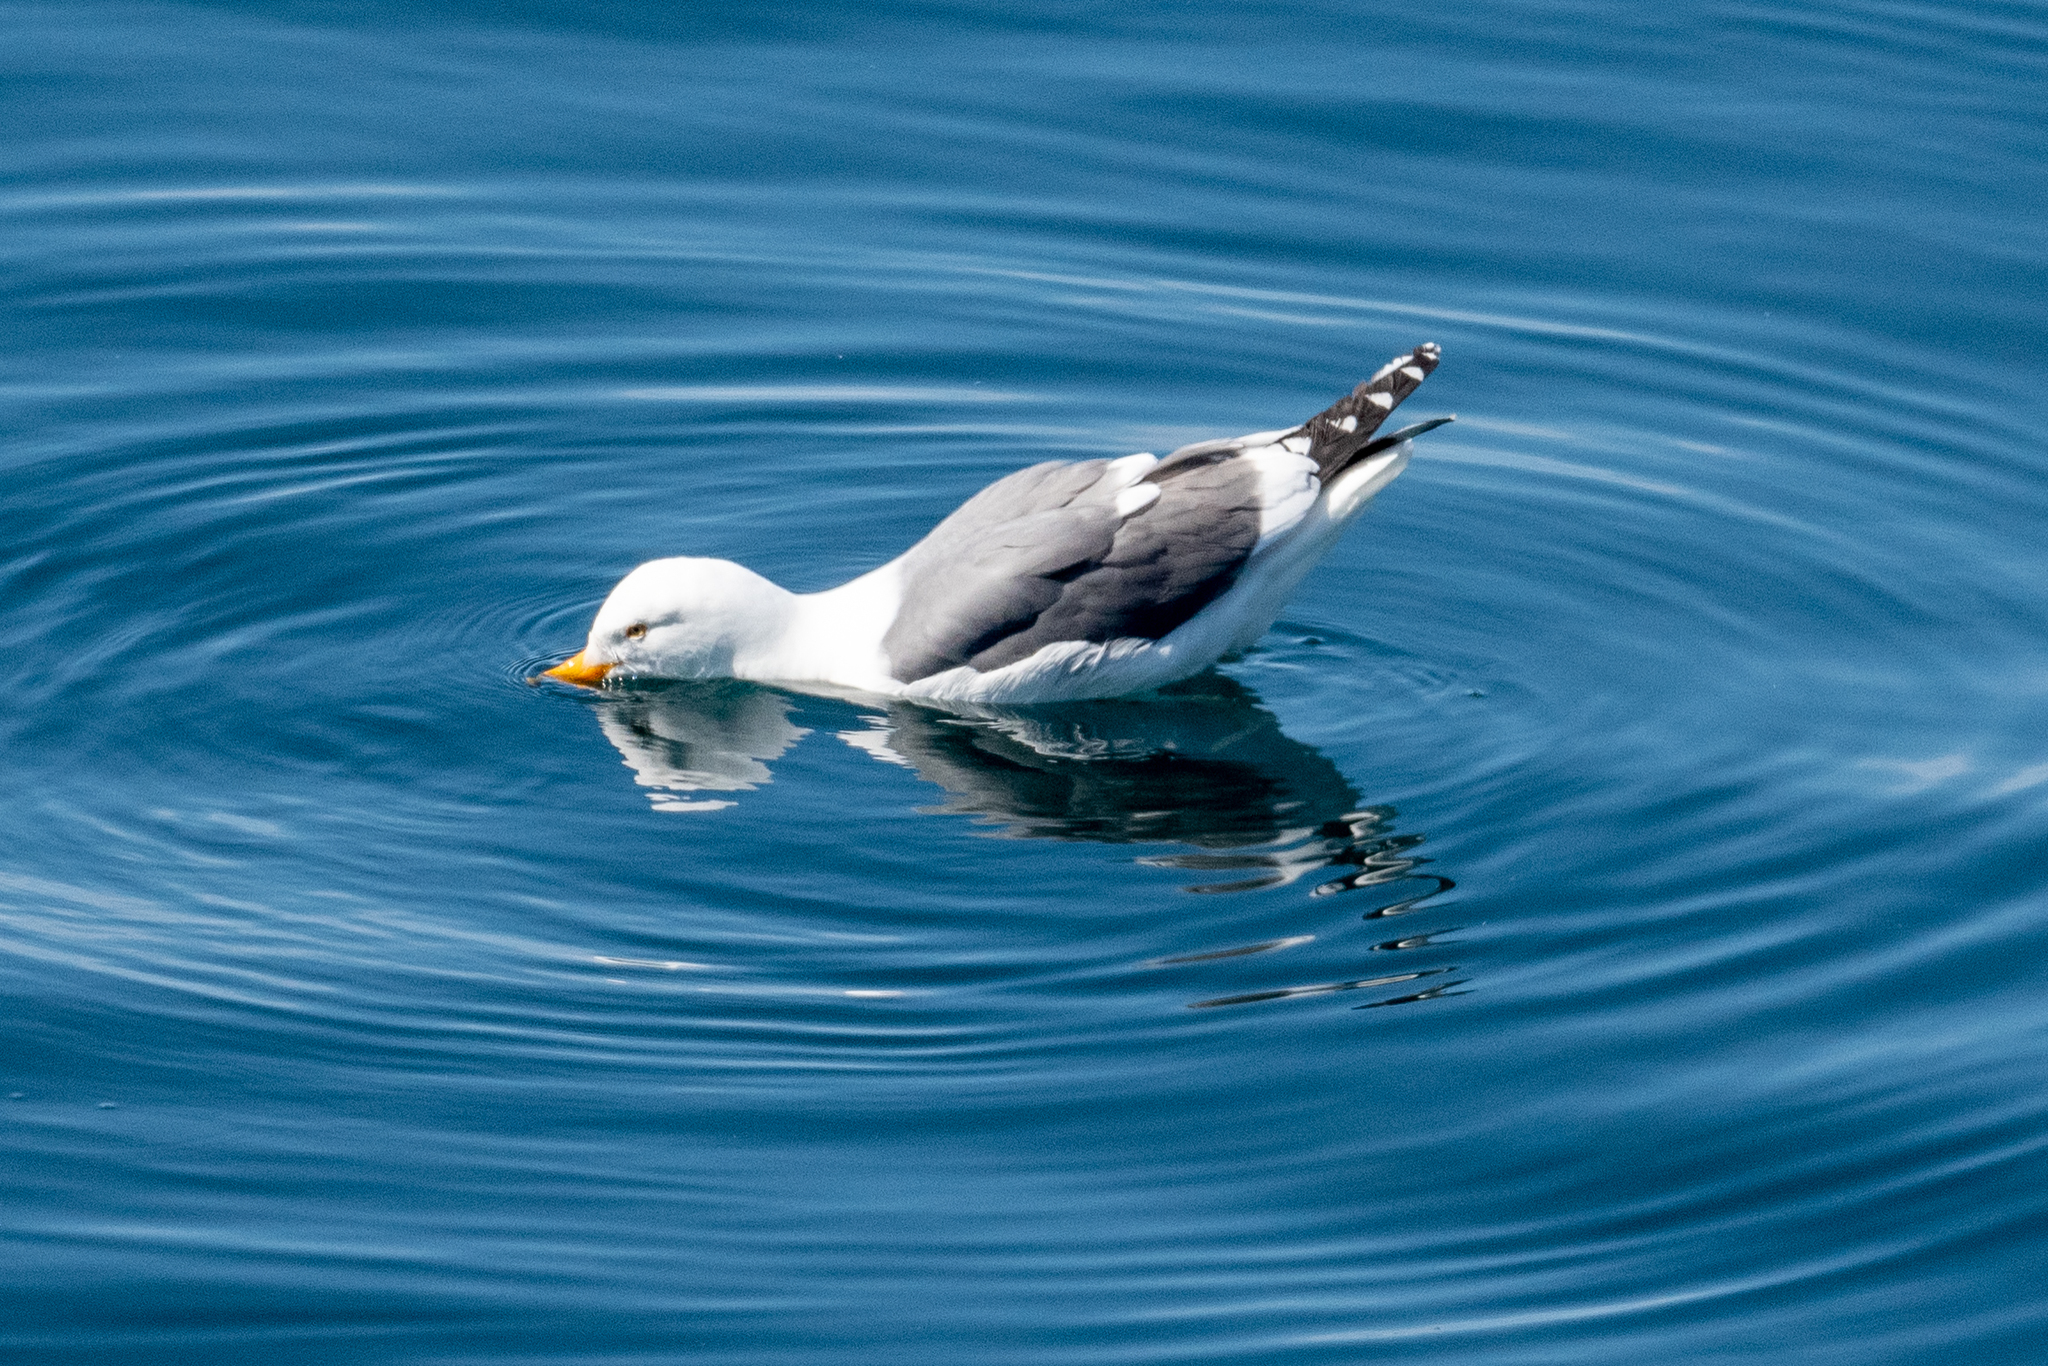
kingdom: Animalia
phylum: Chordata
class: Aves
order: Charadriiformes
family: Laridae
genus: Larus
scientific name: Larus occidentalis
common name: Western gull
